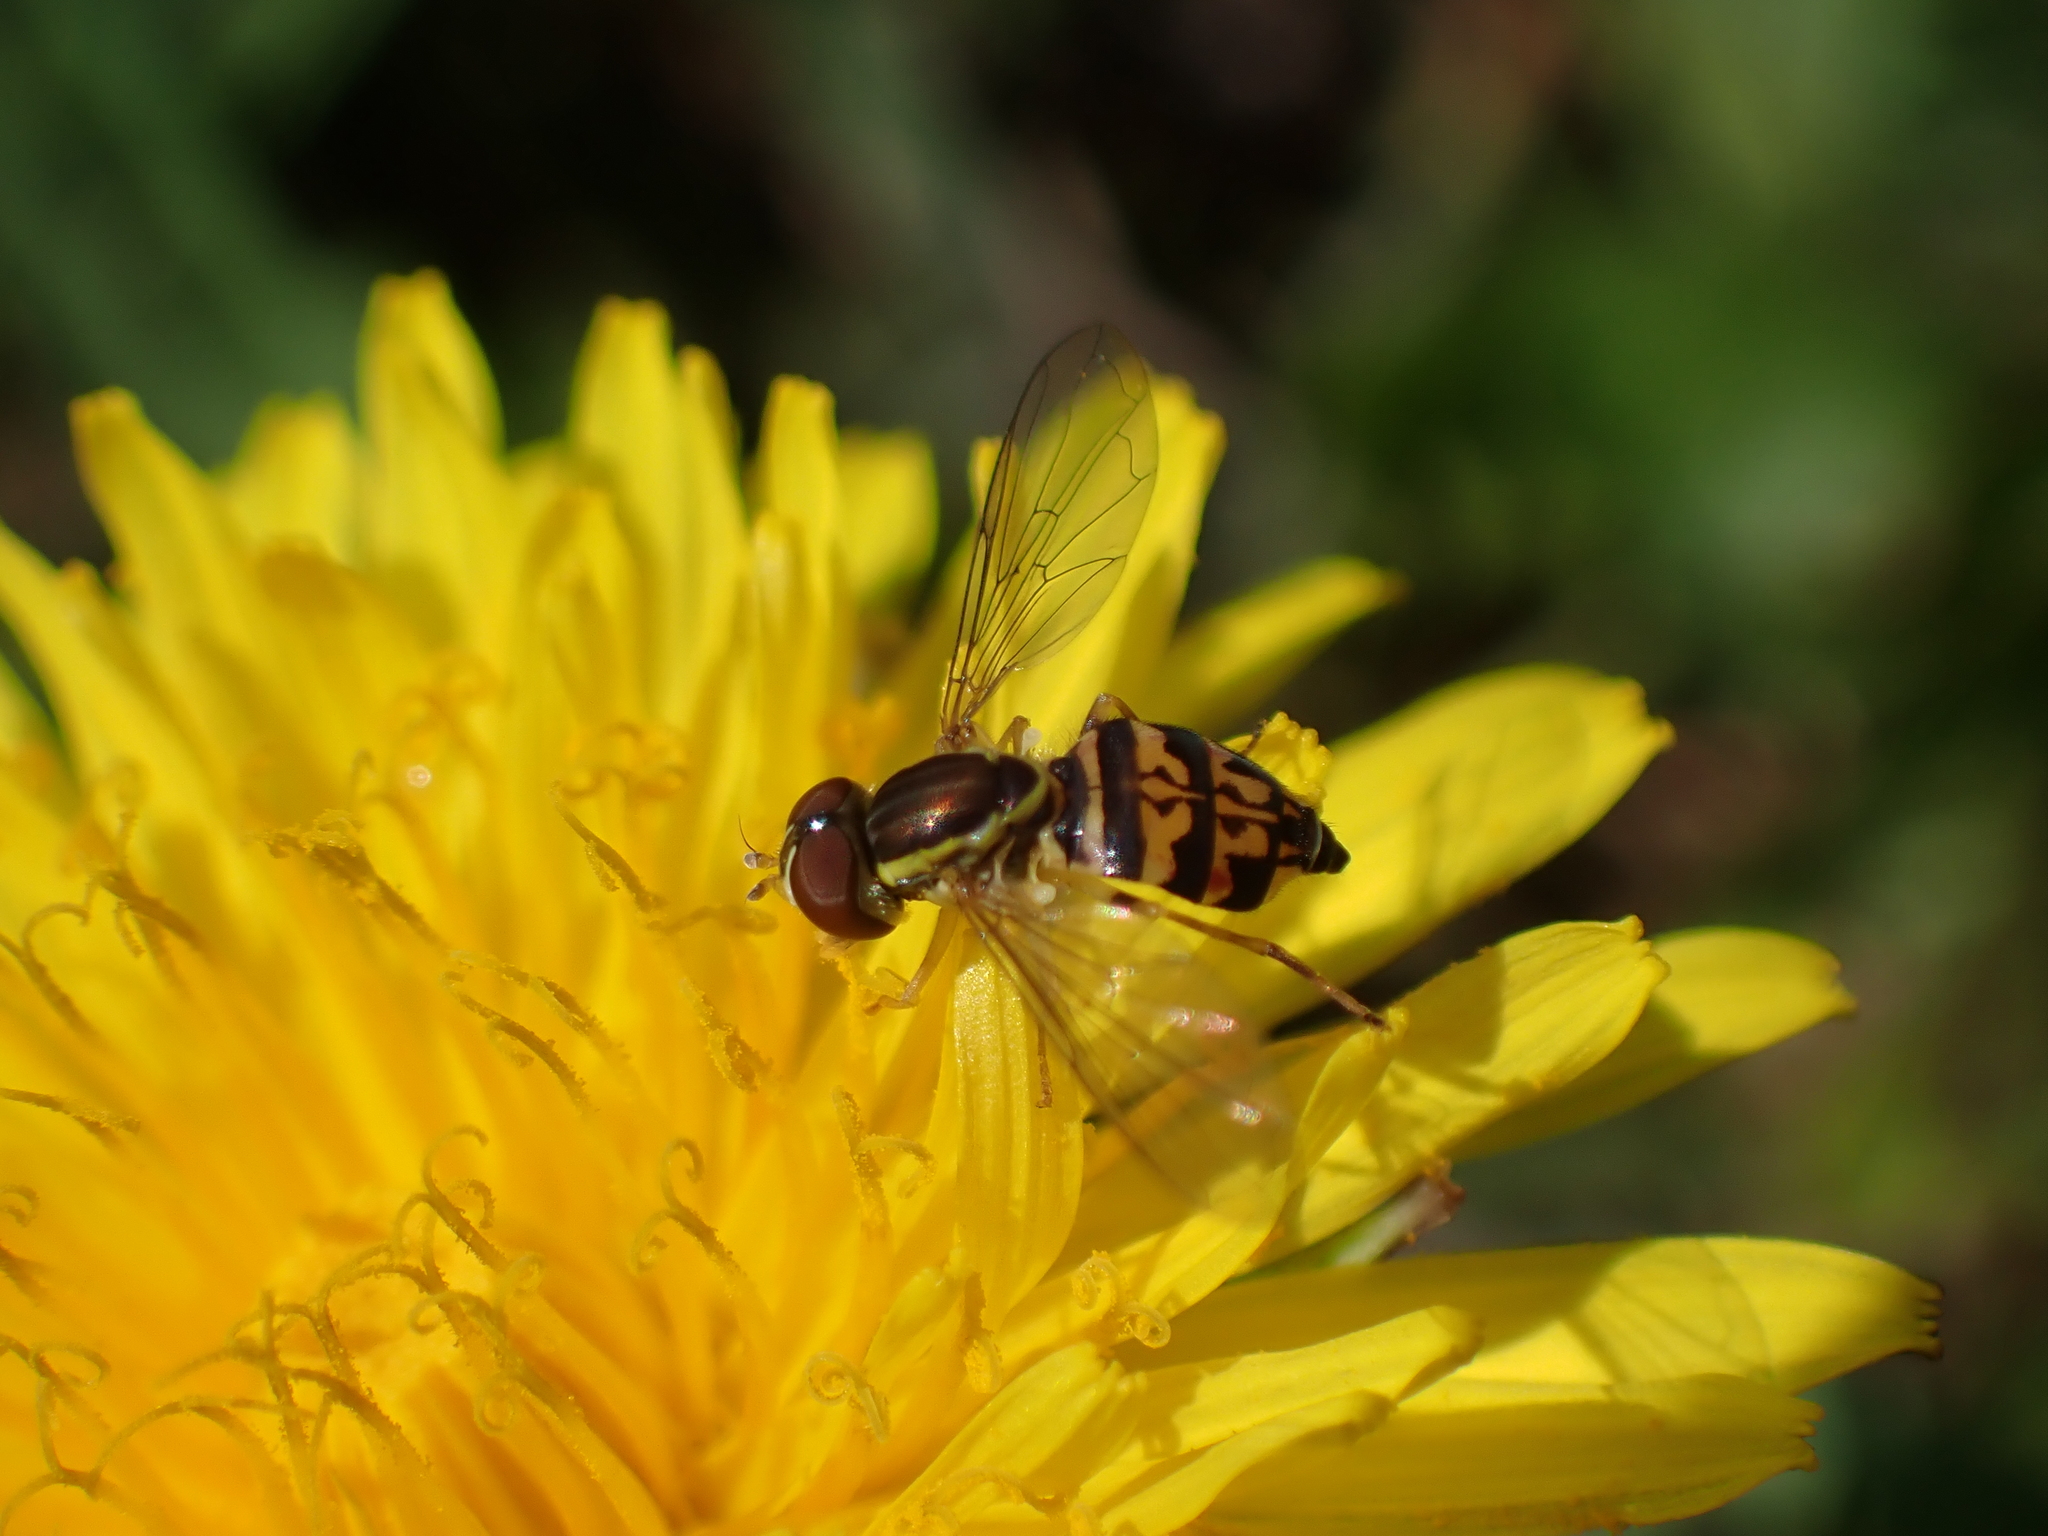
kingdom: Animalia
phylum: Arthropoda
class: Insecta
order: Diptera
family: Syrphidae
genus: Toxomerus
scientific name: Toxomerus geminatus
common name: Eastern calligrapher
